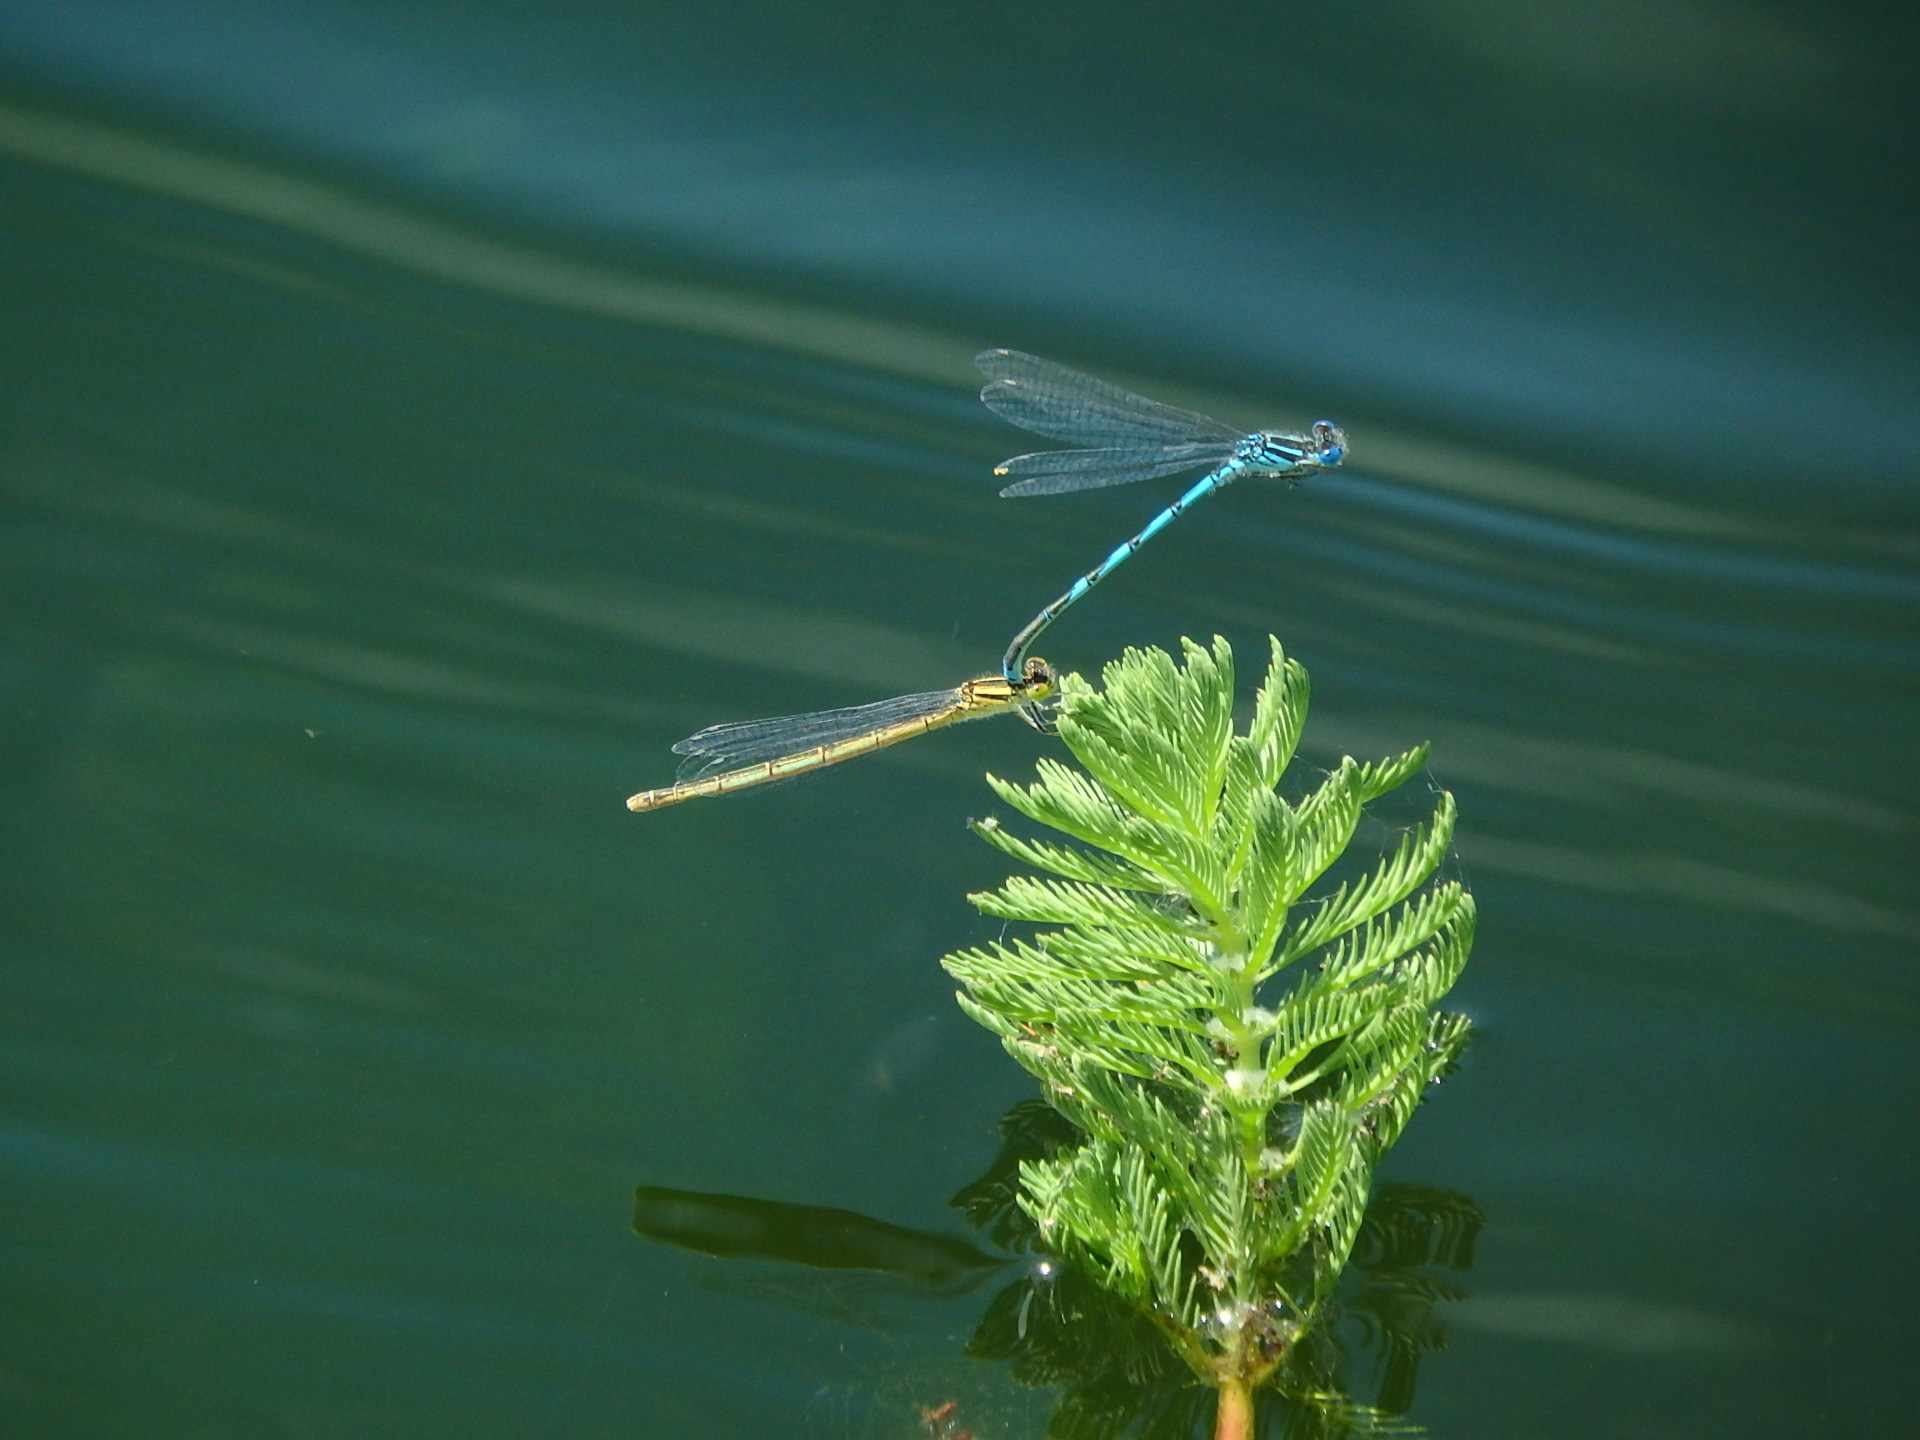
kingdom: Animalia
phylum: Arthropoda
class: Insecta
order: Odonata
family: Coenagrionidae
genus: Erythromma
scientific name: Erythromma lindenii
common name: Blue-eye
